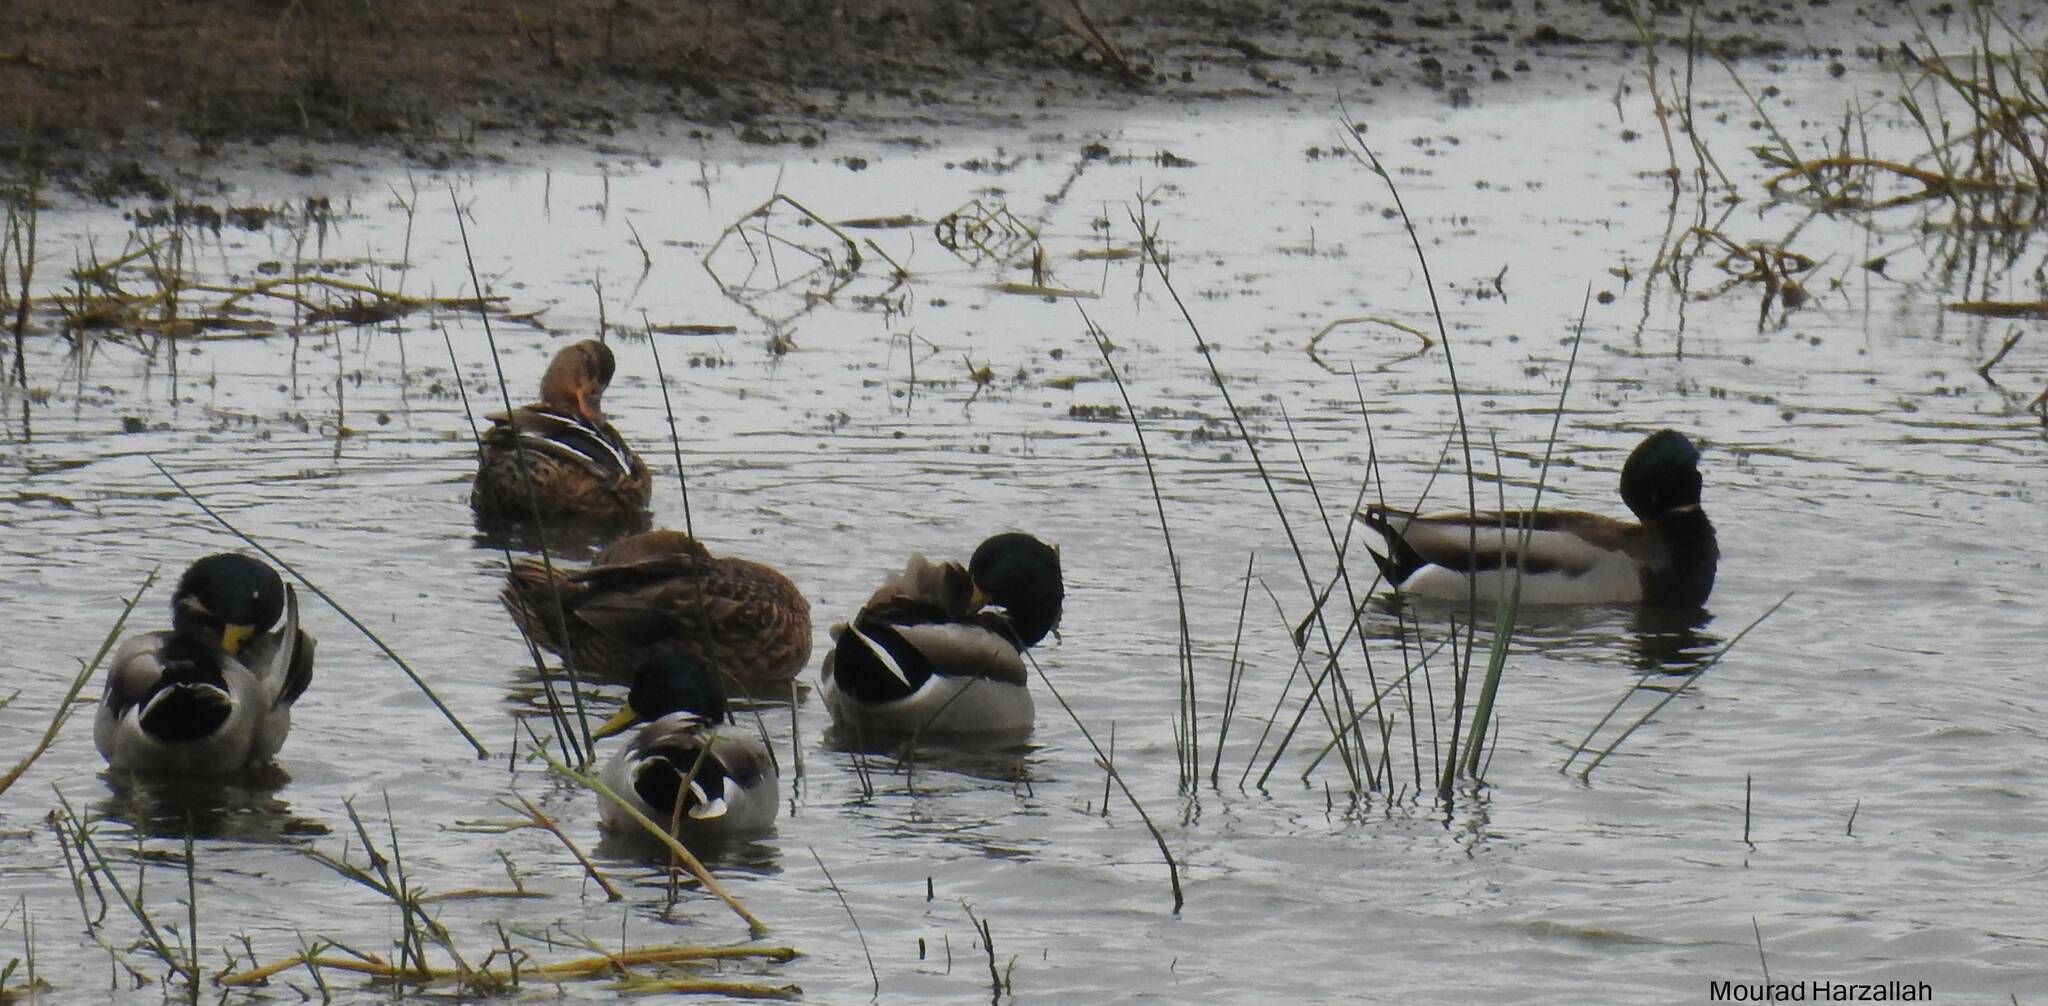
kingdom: Animalia
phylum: Chordata
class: Aves
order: Anseriformes
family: Anatidae
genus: Anas
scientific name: Anas platyrhynchos
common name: Mallard
